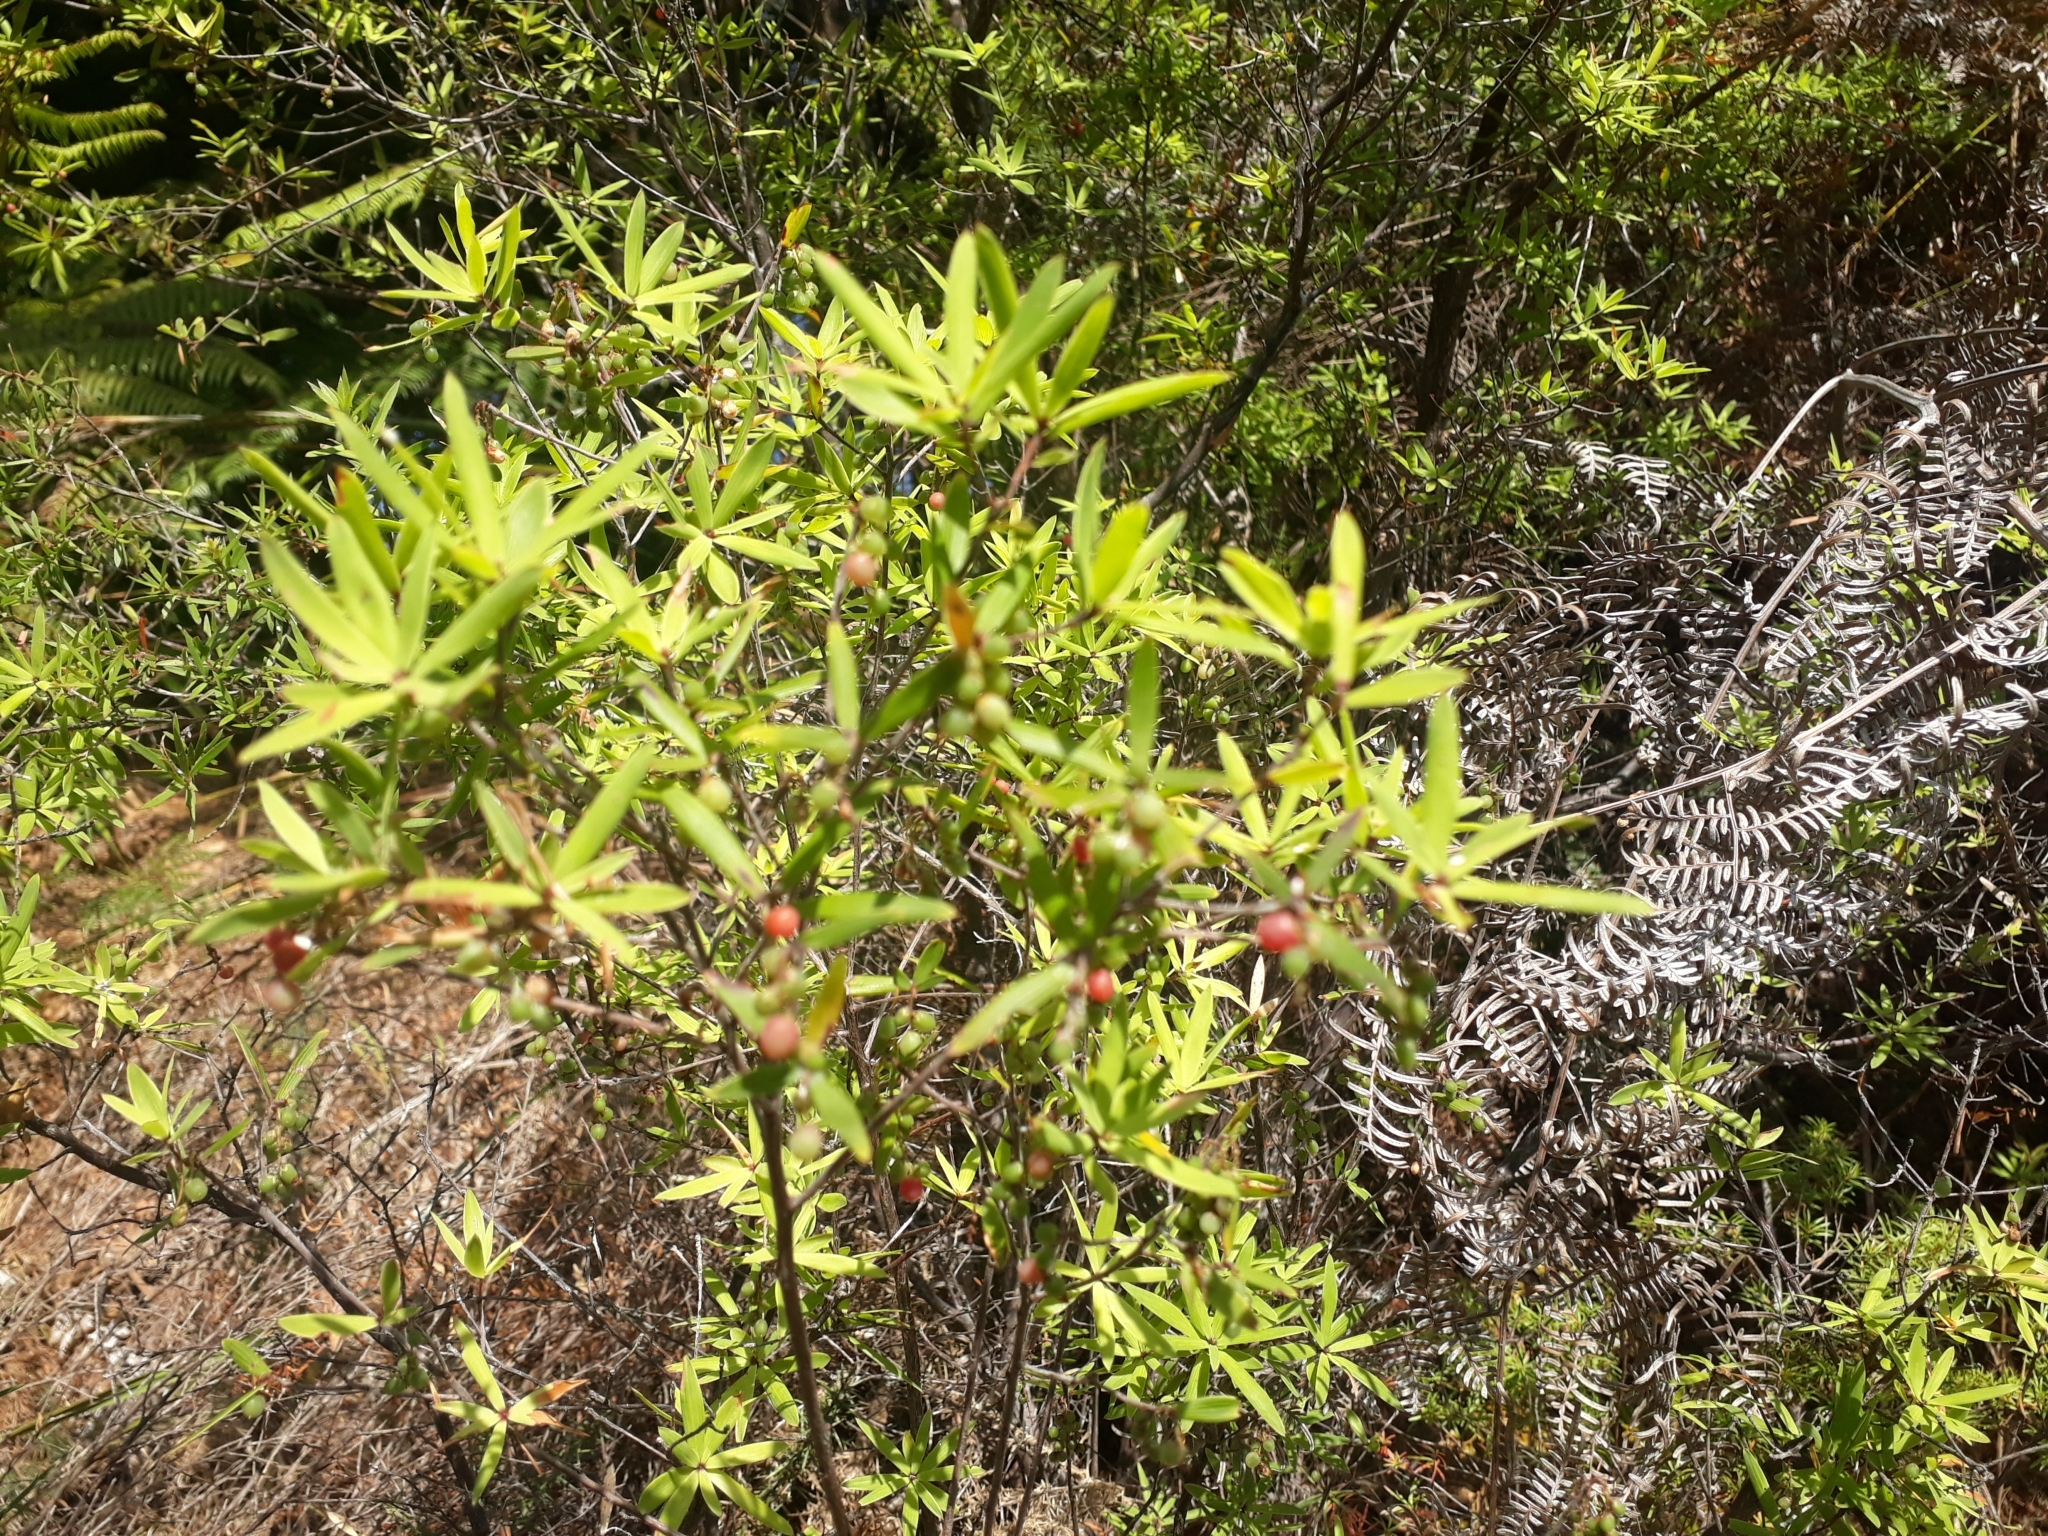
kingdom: Plantae
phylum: Tracheophyta
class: Magnoliopsida
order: Ericales
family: Ericaceae
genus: Leucopogon
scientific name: Leucopogon fasciculatus
